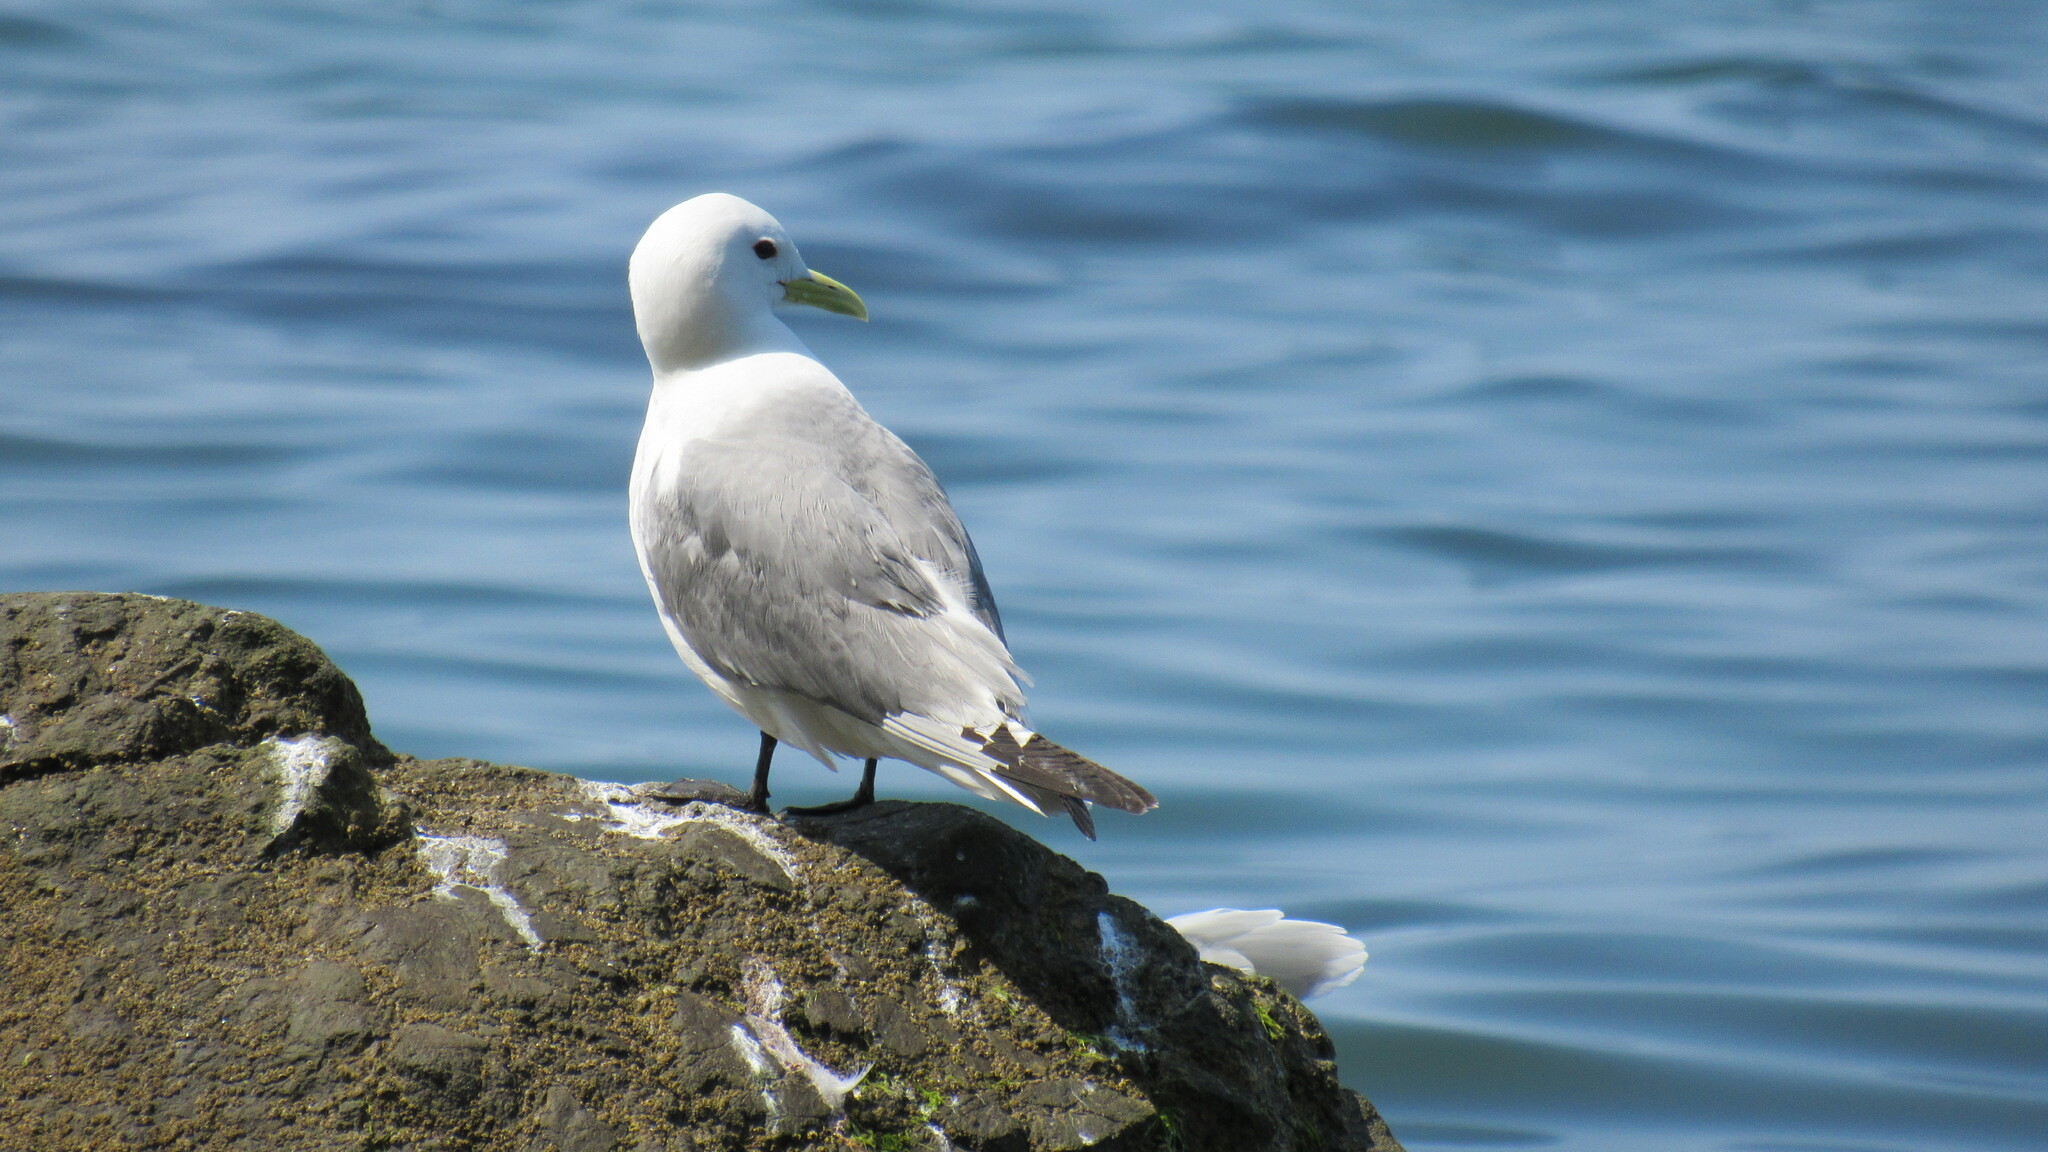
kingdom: Animalia
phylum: Chordata
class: Aves
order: Charadriiformes
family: Laridae
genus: Rissa
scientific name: Rissa tridactyla
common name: Black-legged kittiwake
